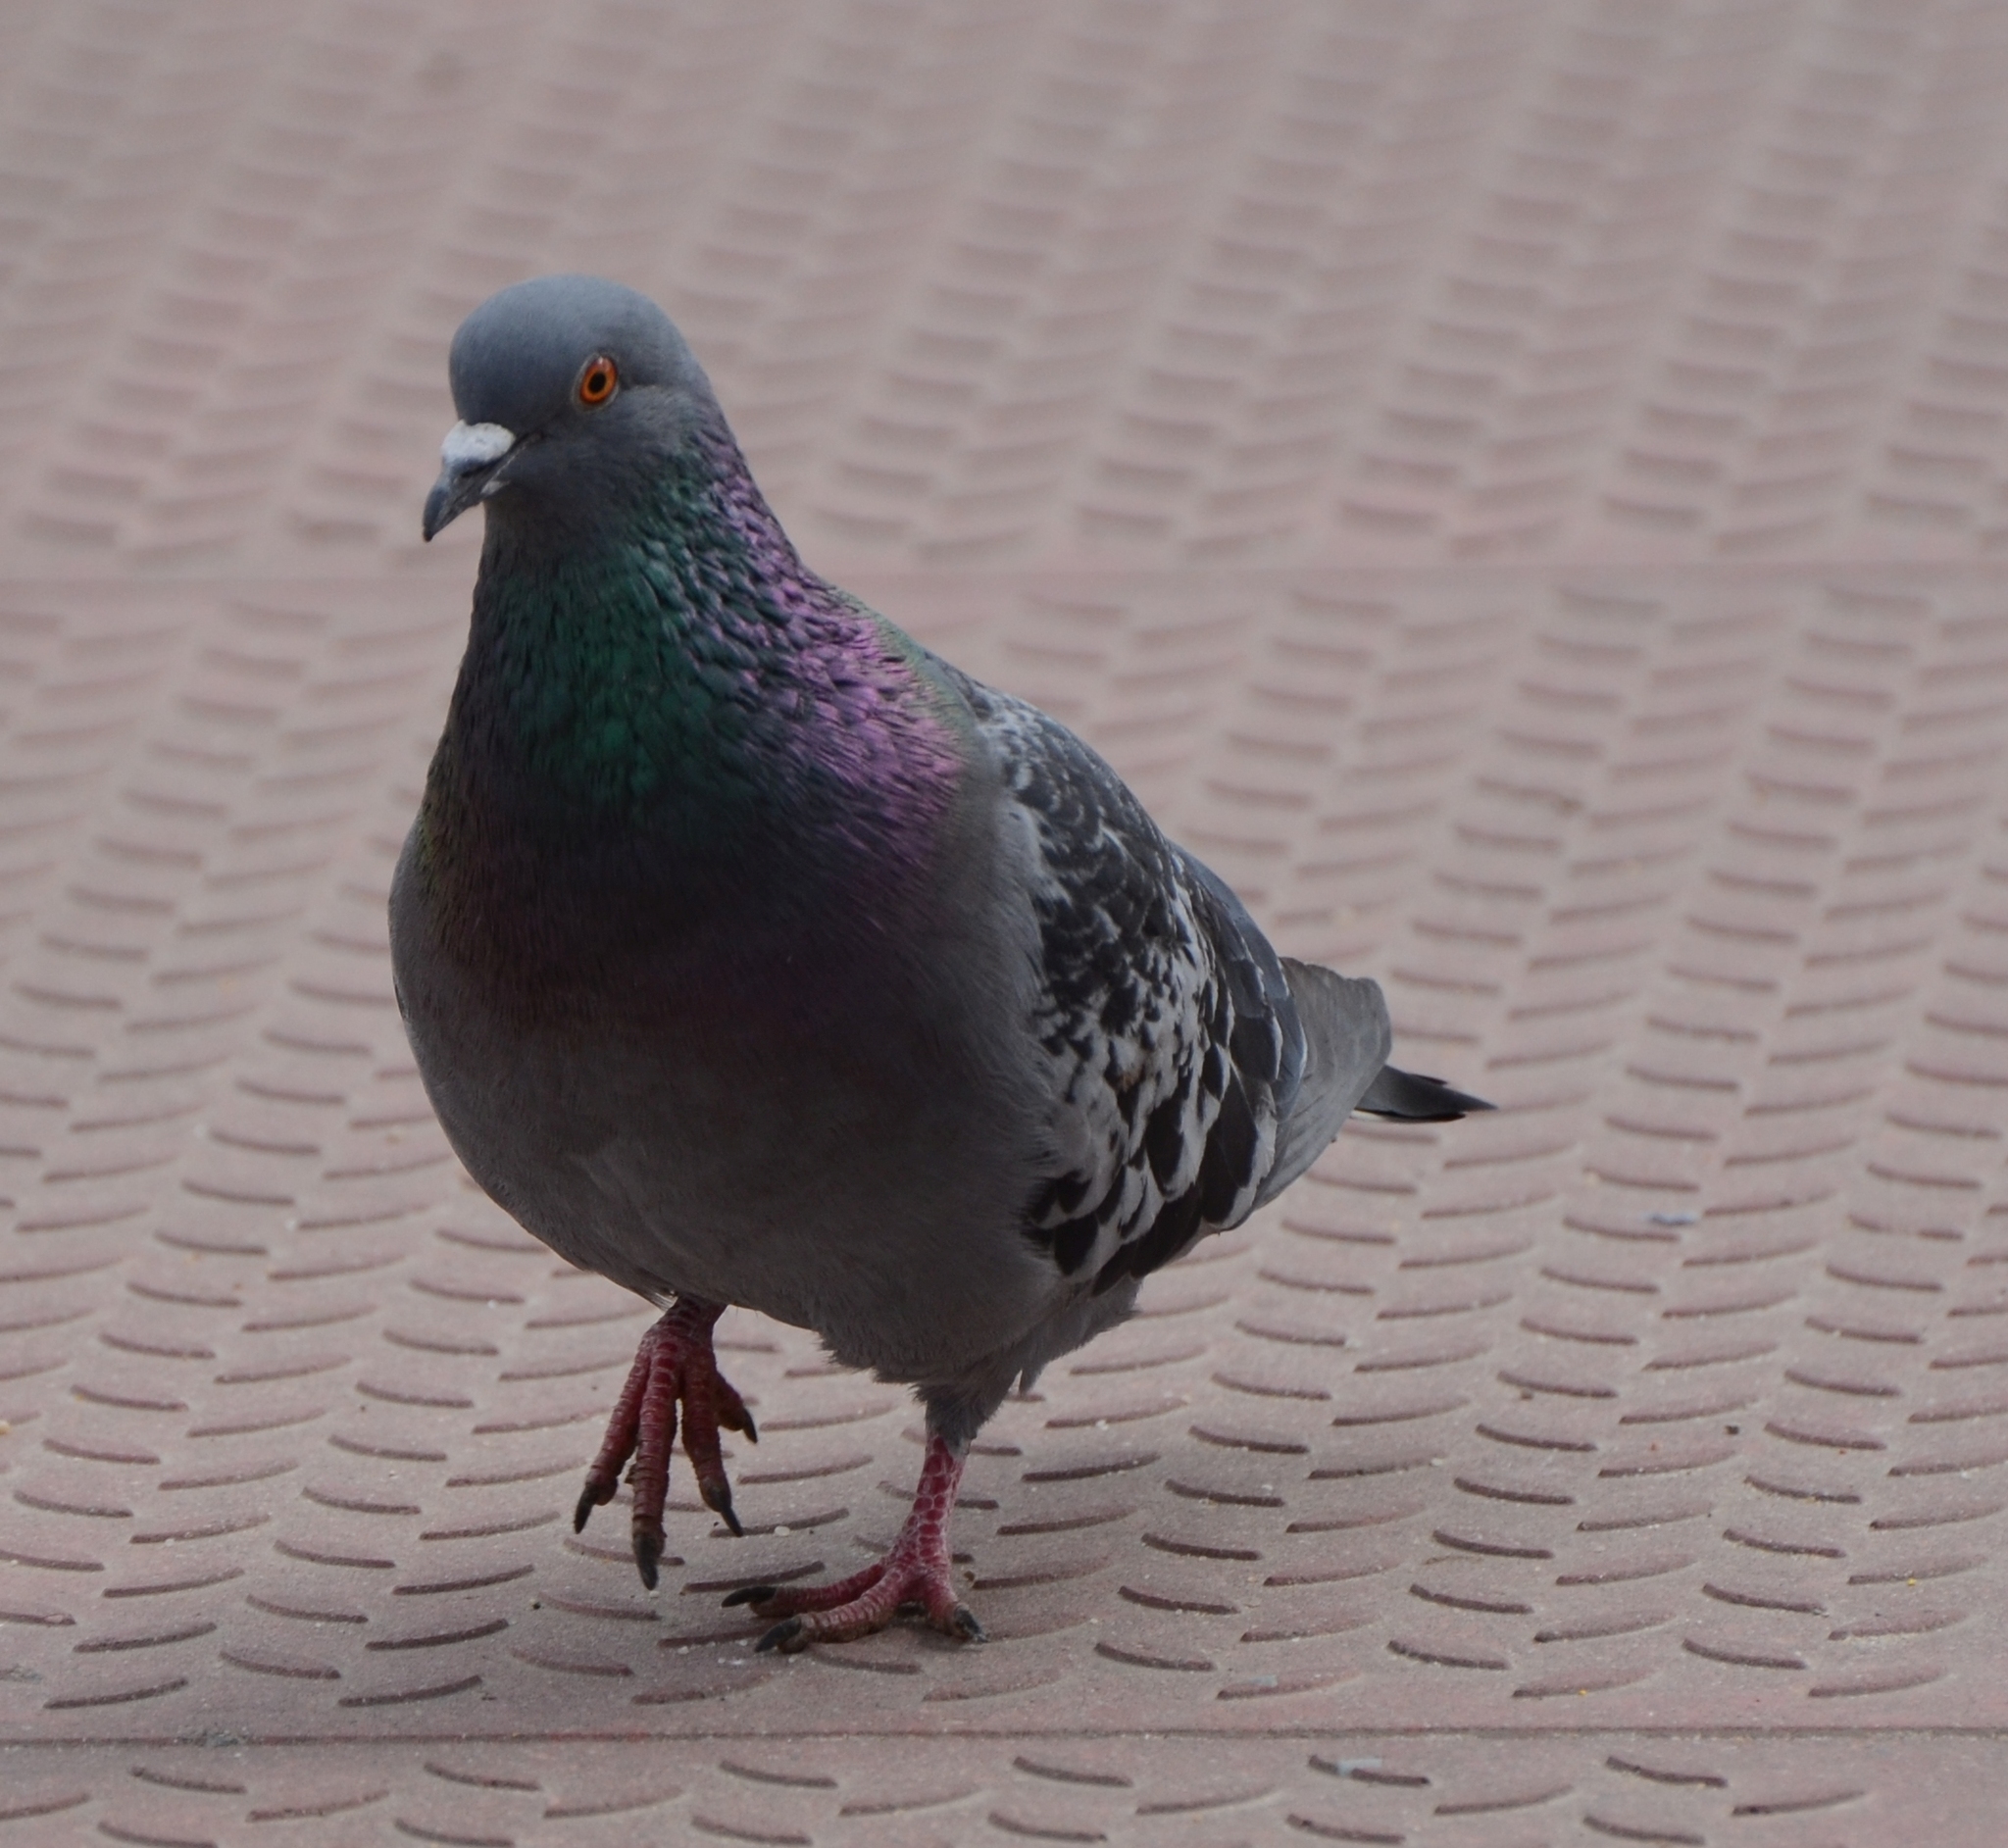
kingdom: Animalia
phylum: Chordata
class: Aves
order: Columbiformes
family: Columbidae
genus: Columba
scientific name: Columba livia
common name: Rock pigeon
